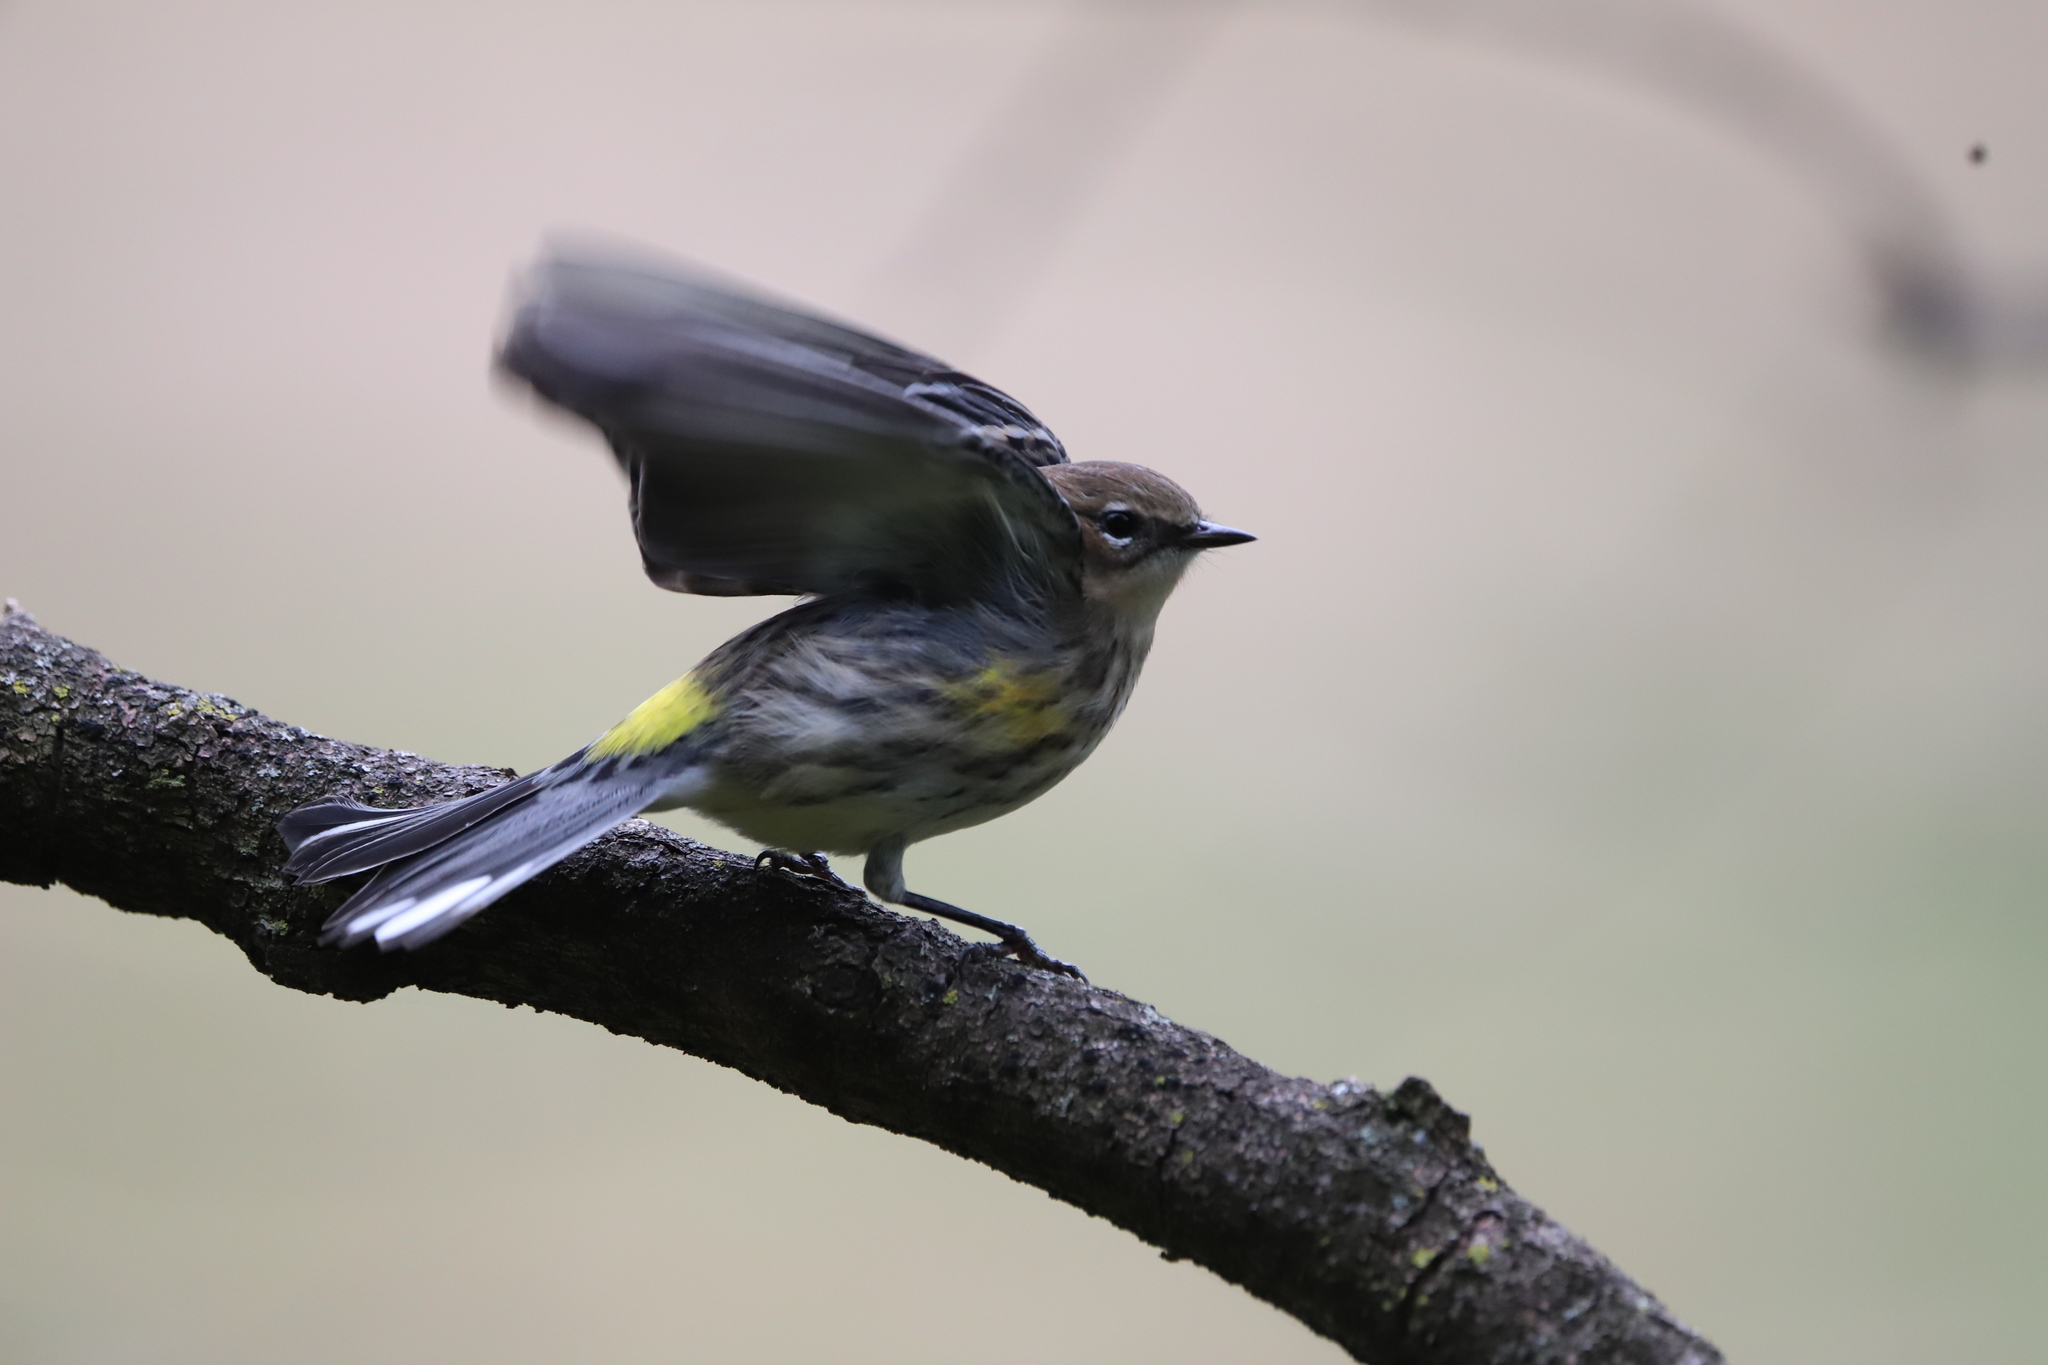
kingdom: Animalia
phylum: Chordata
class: Aves
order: Passeriformes
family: Parulidae
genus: Setophaga
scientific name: Setophaga coronata
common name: Myrtle warbler
